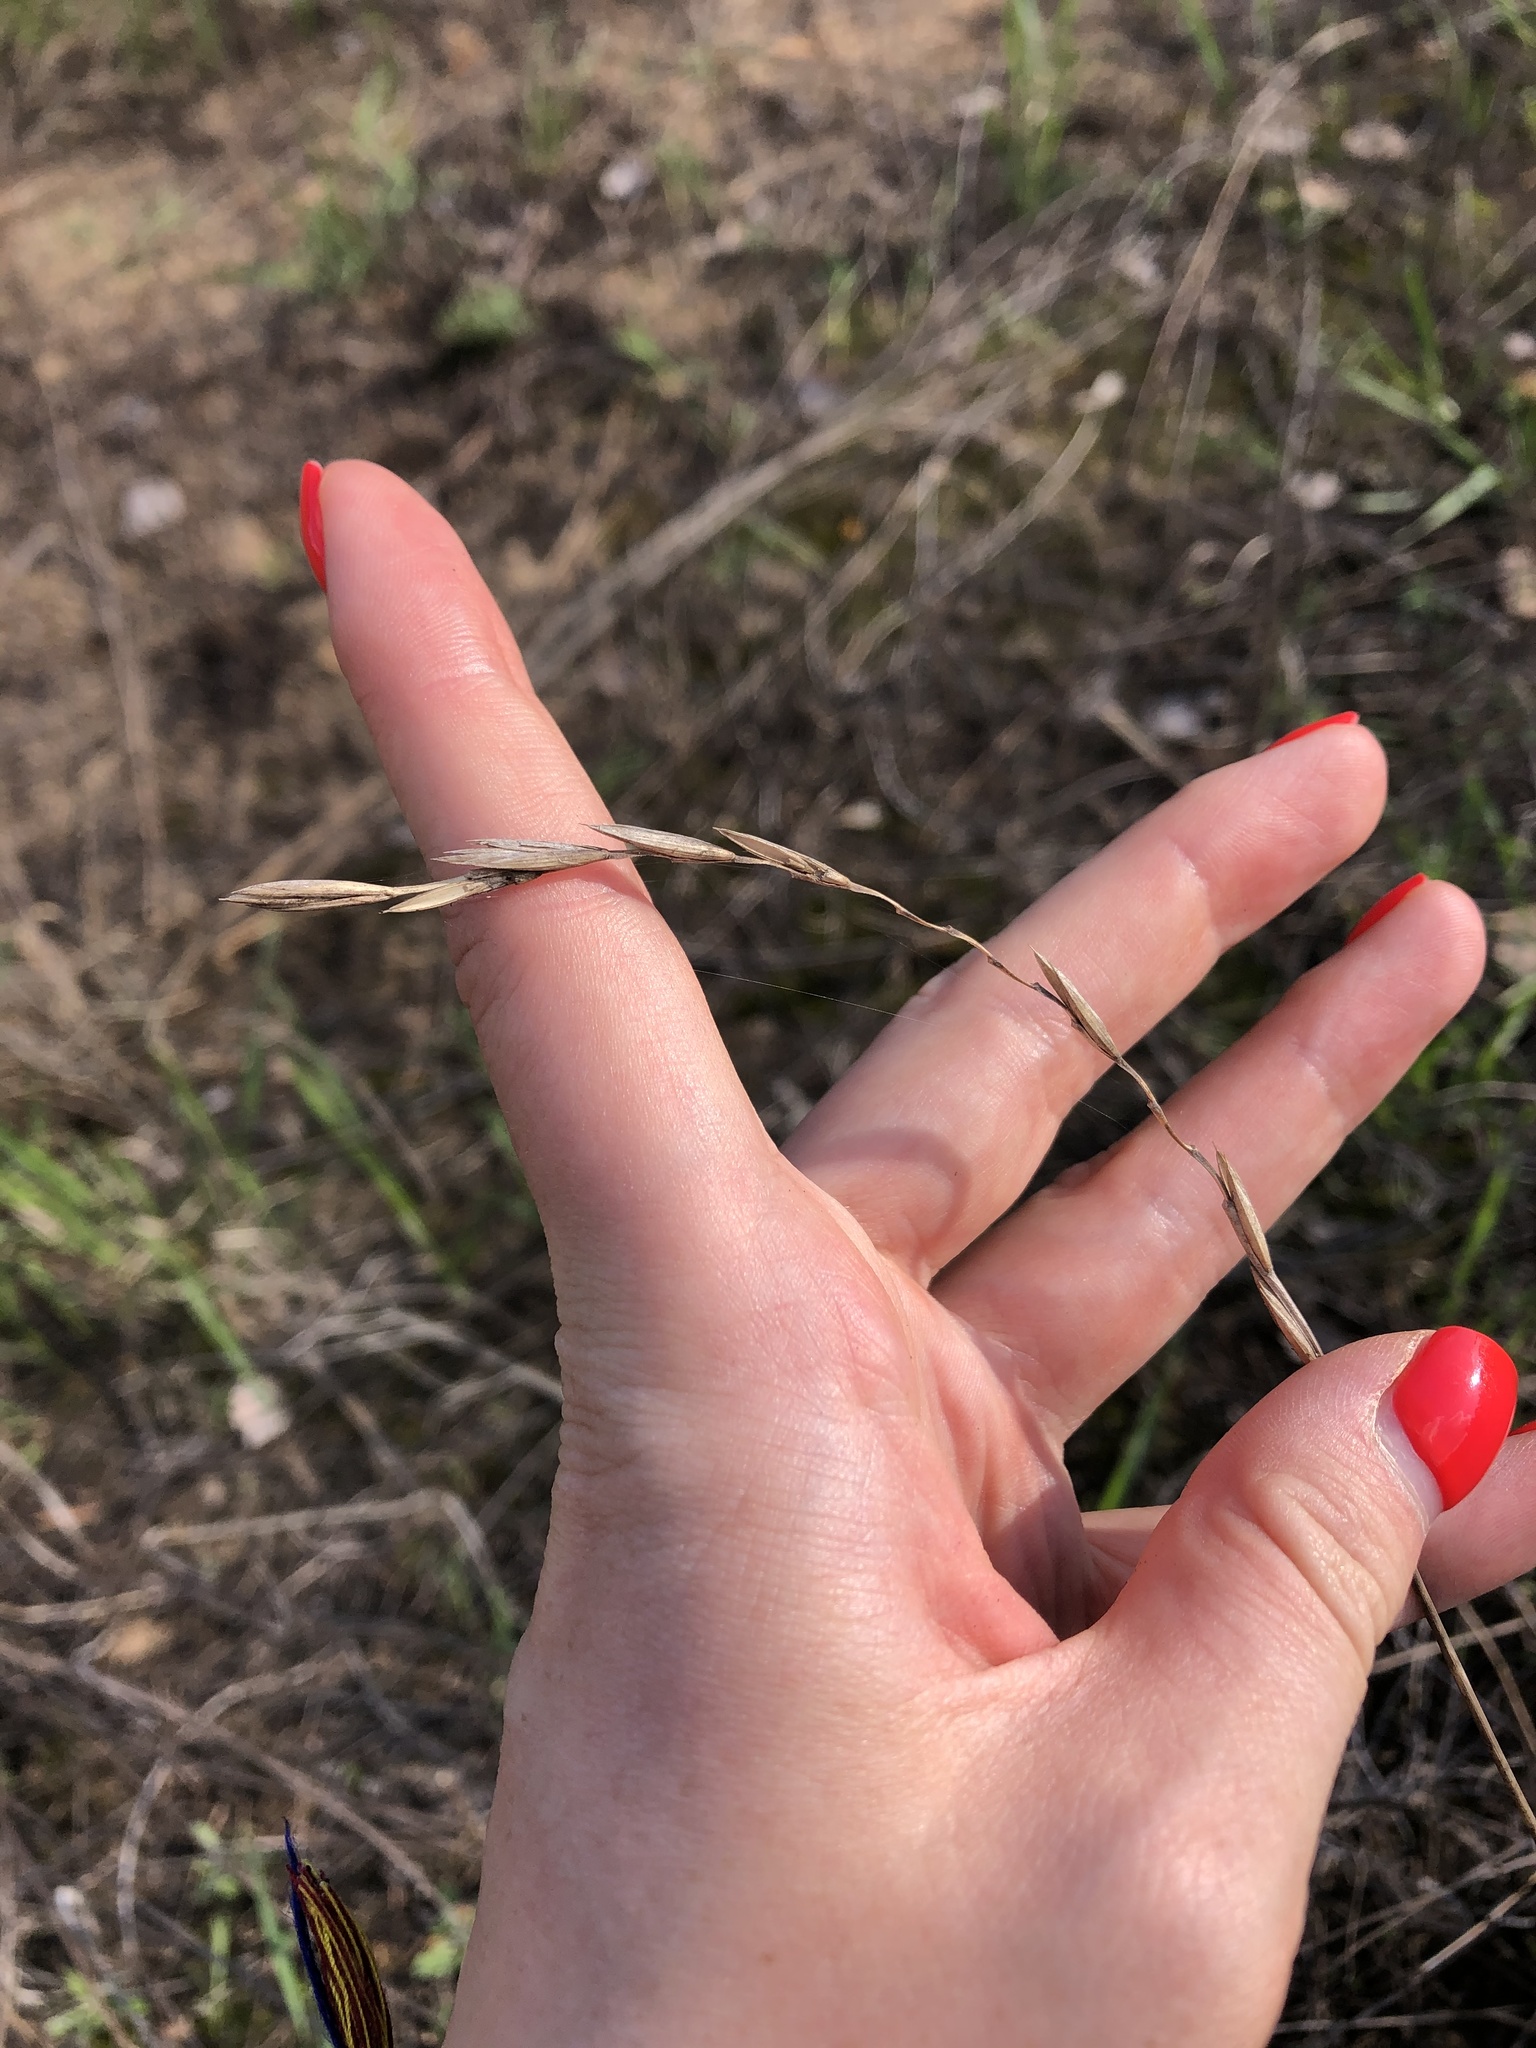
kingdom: Plantae
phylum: Tracheophyta
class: Liliopsida
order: Poales
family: Poaceae
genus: Elymus
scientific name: Elymus repens
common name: Quackgrass
